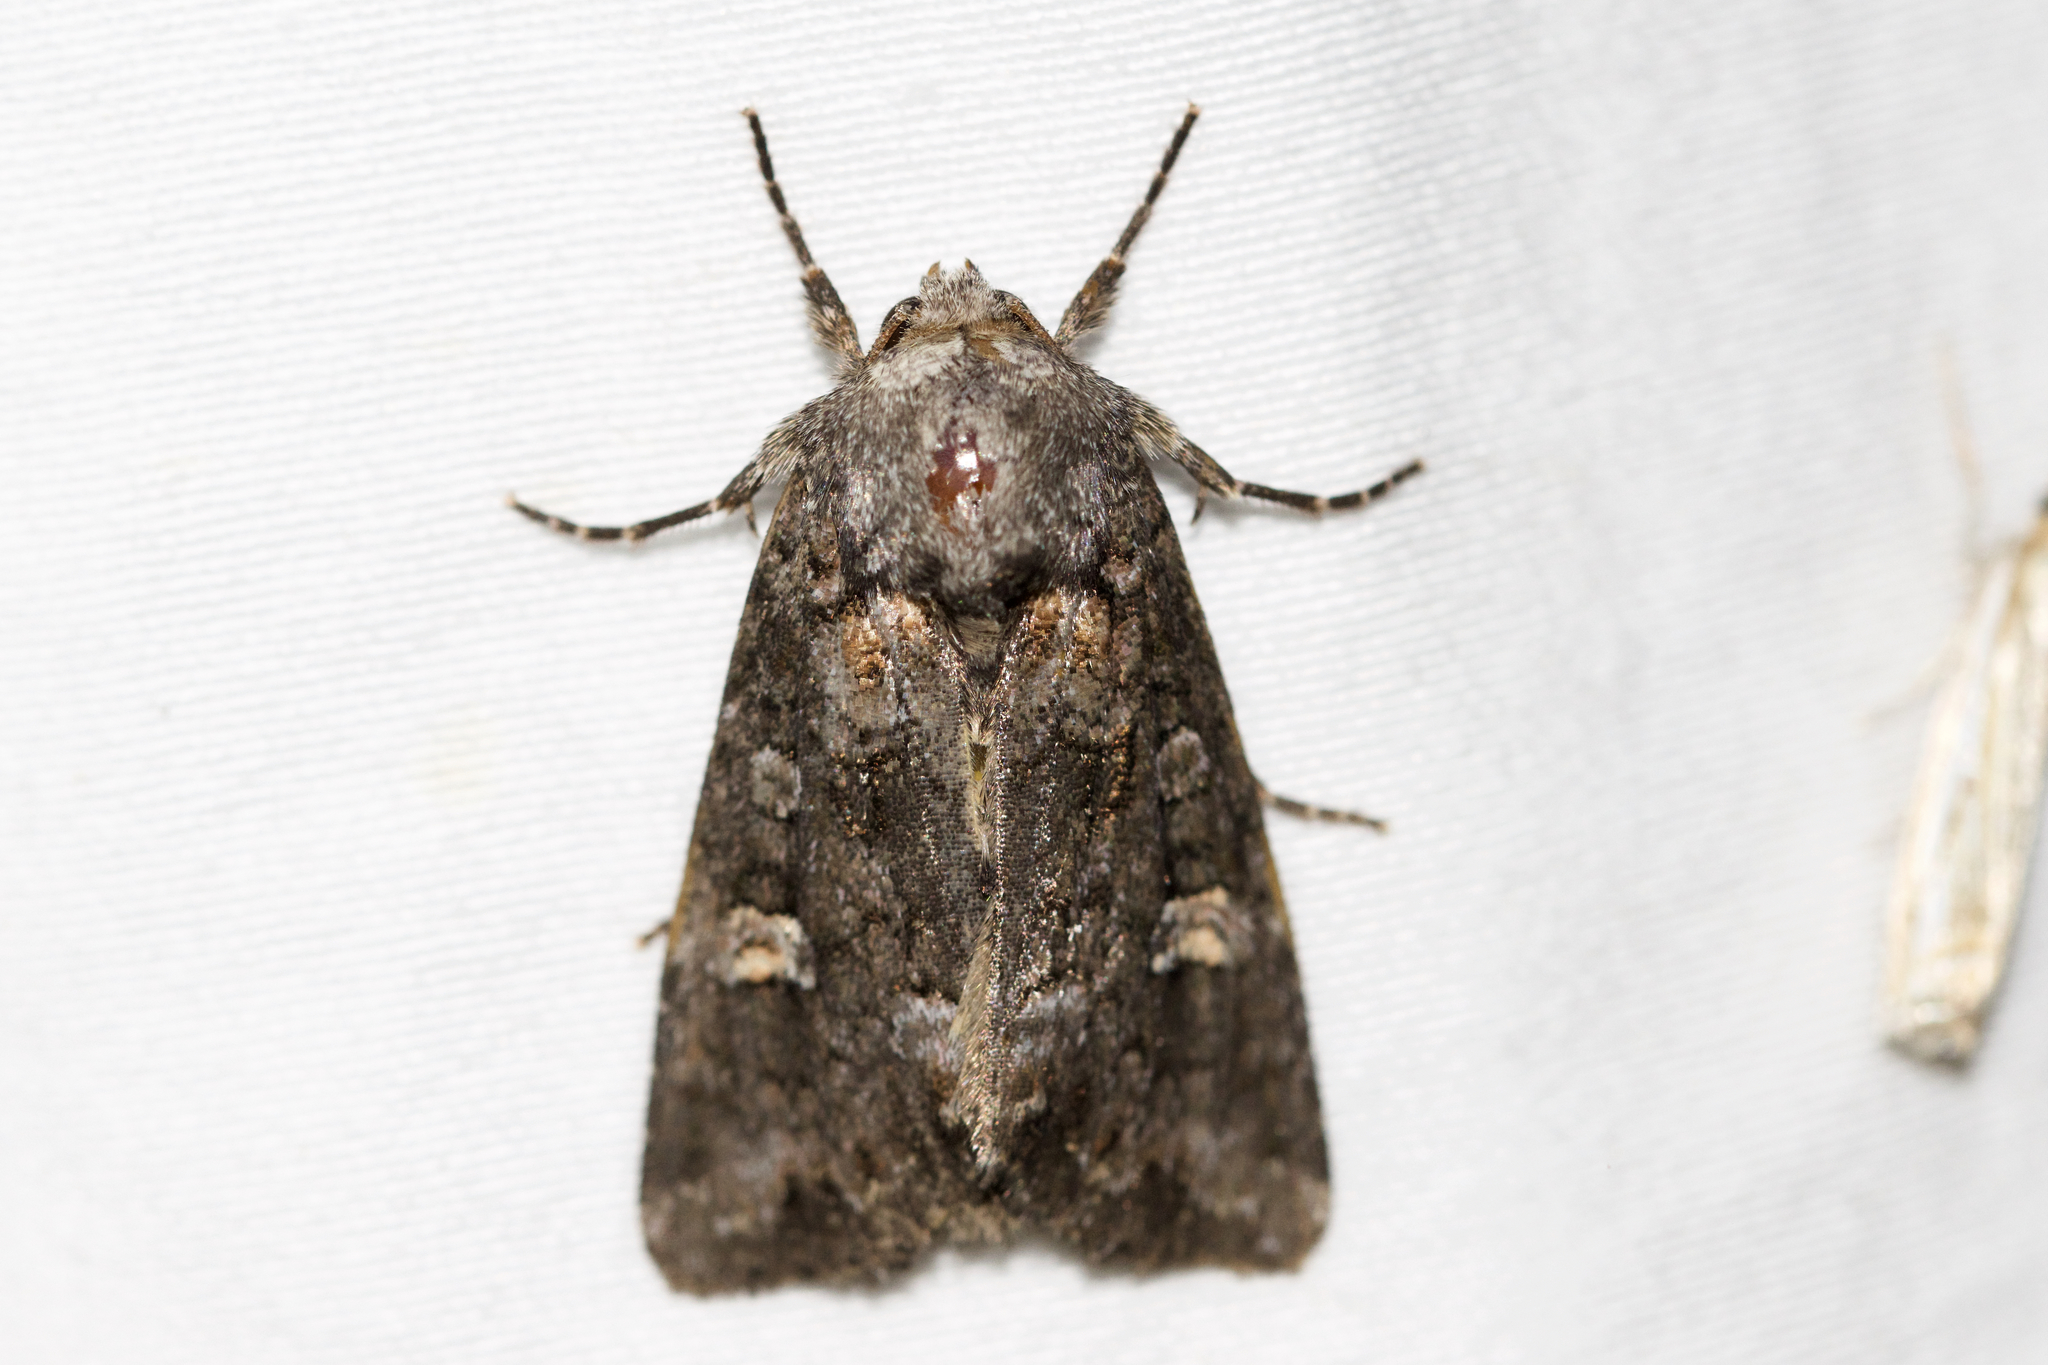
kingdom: Animalia
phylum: Arthropoda
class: Insecta
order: Lepidoptera
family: Noctuidae
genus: Spiramater
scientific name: Spiramater lutra
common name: Otter spiramater moth
